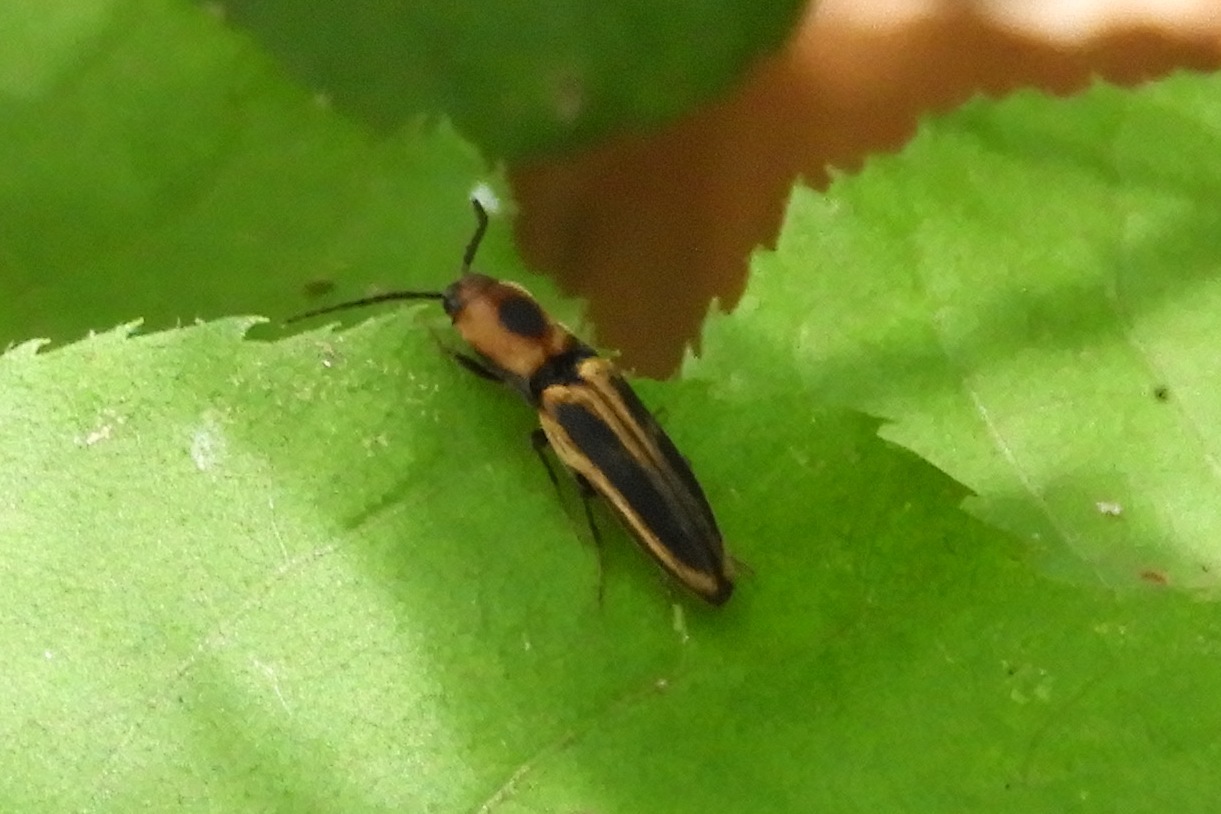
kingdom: Animalia
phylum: Arthropoda
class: Insecta
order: Coleoptera
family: Elateridae
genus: Megapenthes
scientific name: Megapenthes
